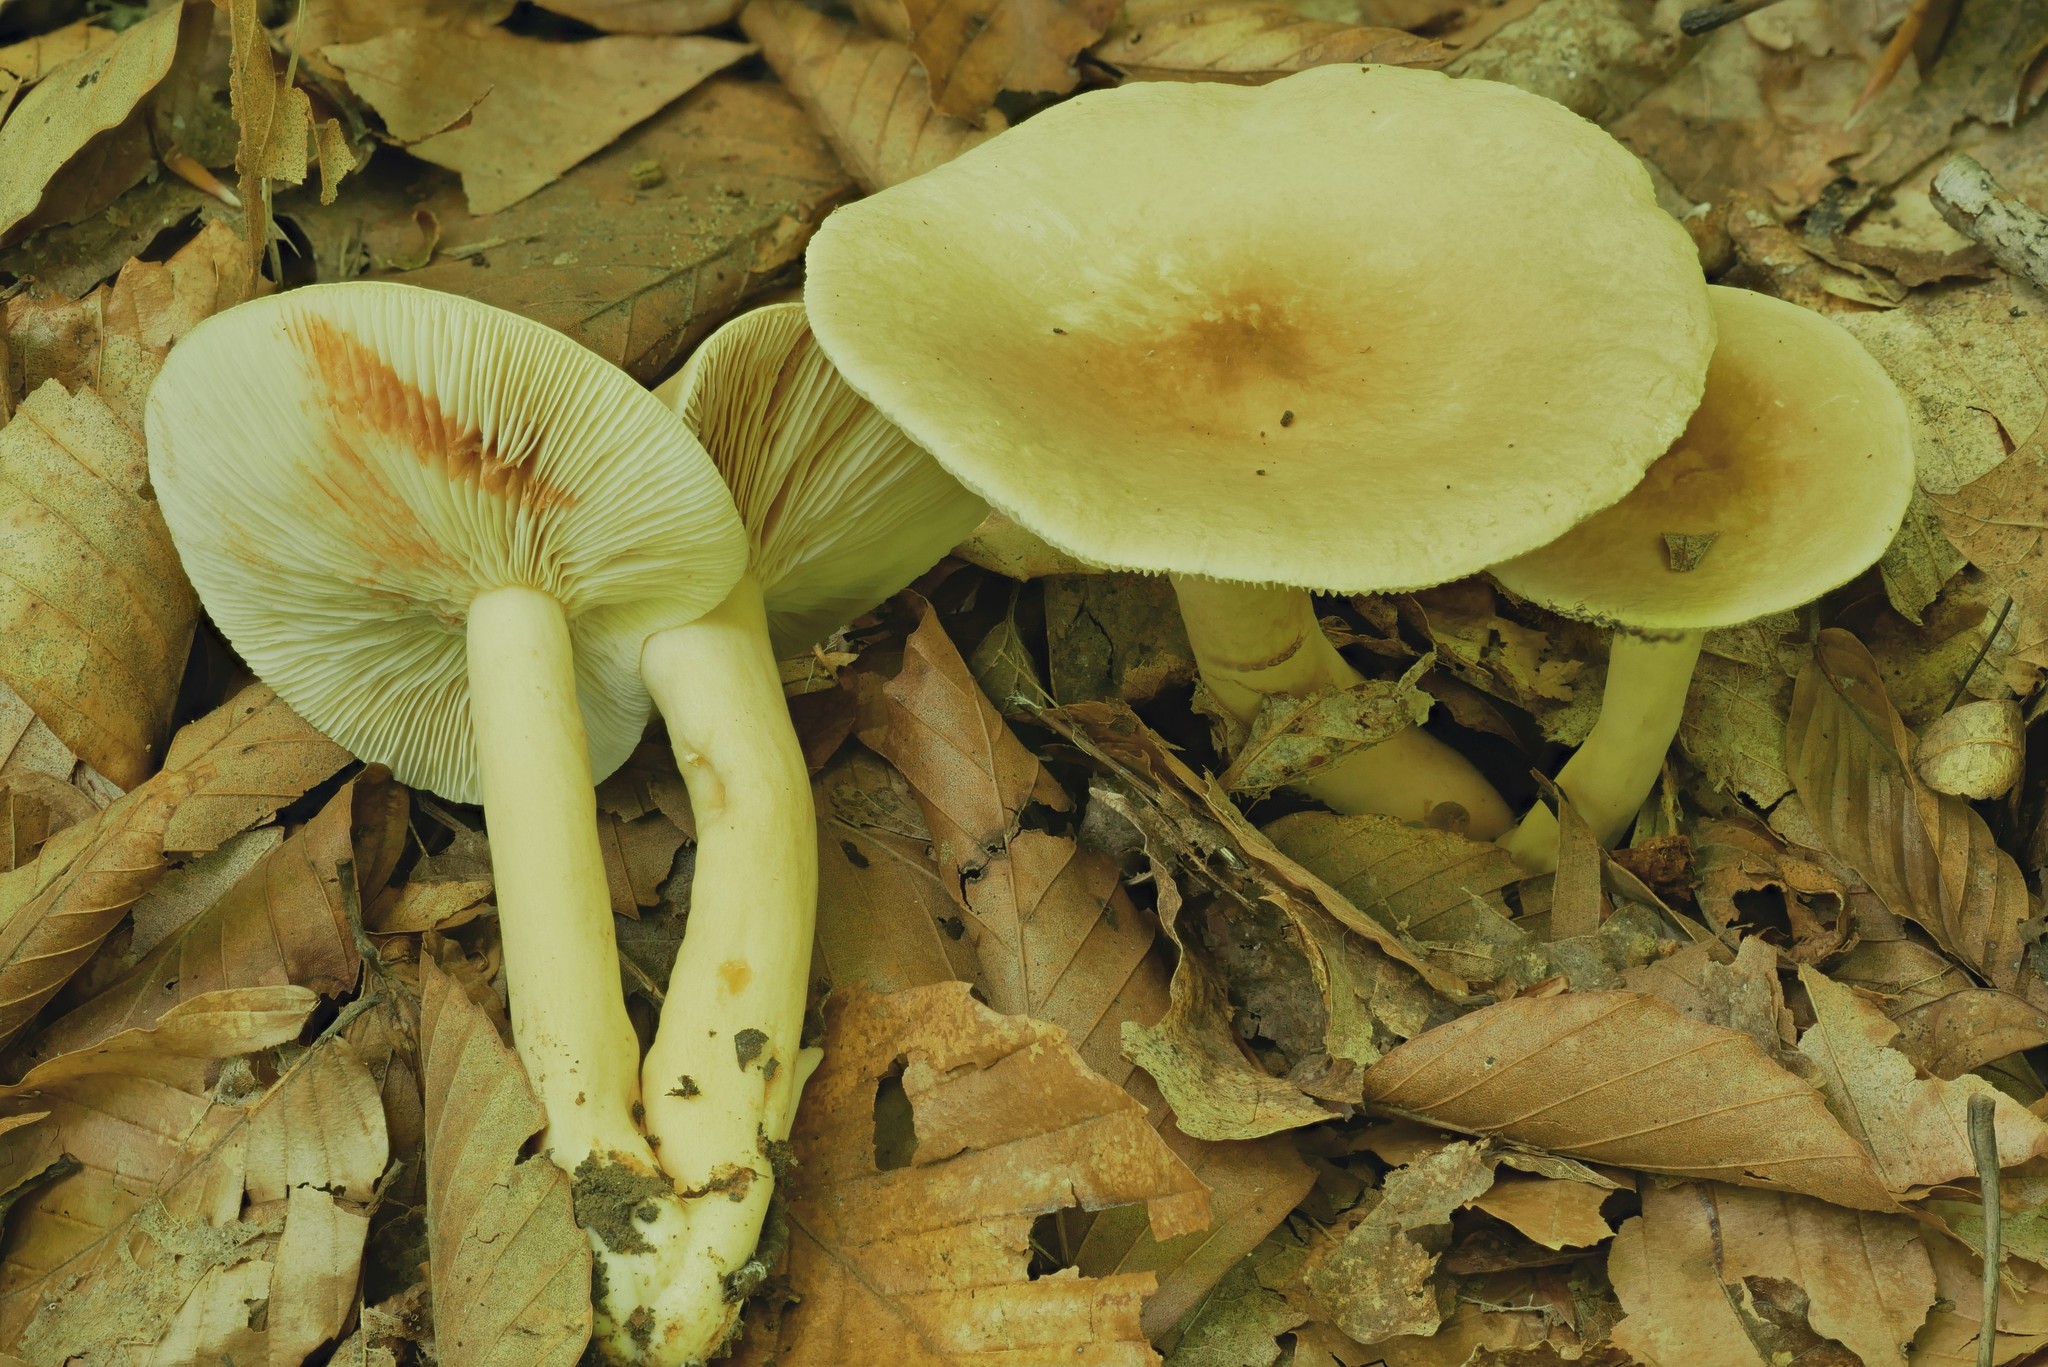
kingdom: Fungi
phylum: Basidiomycota
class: Agaricomycetes
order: Russulales
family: Russulaceae
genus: Lactarius
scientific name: Lactarius fumosus
